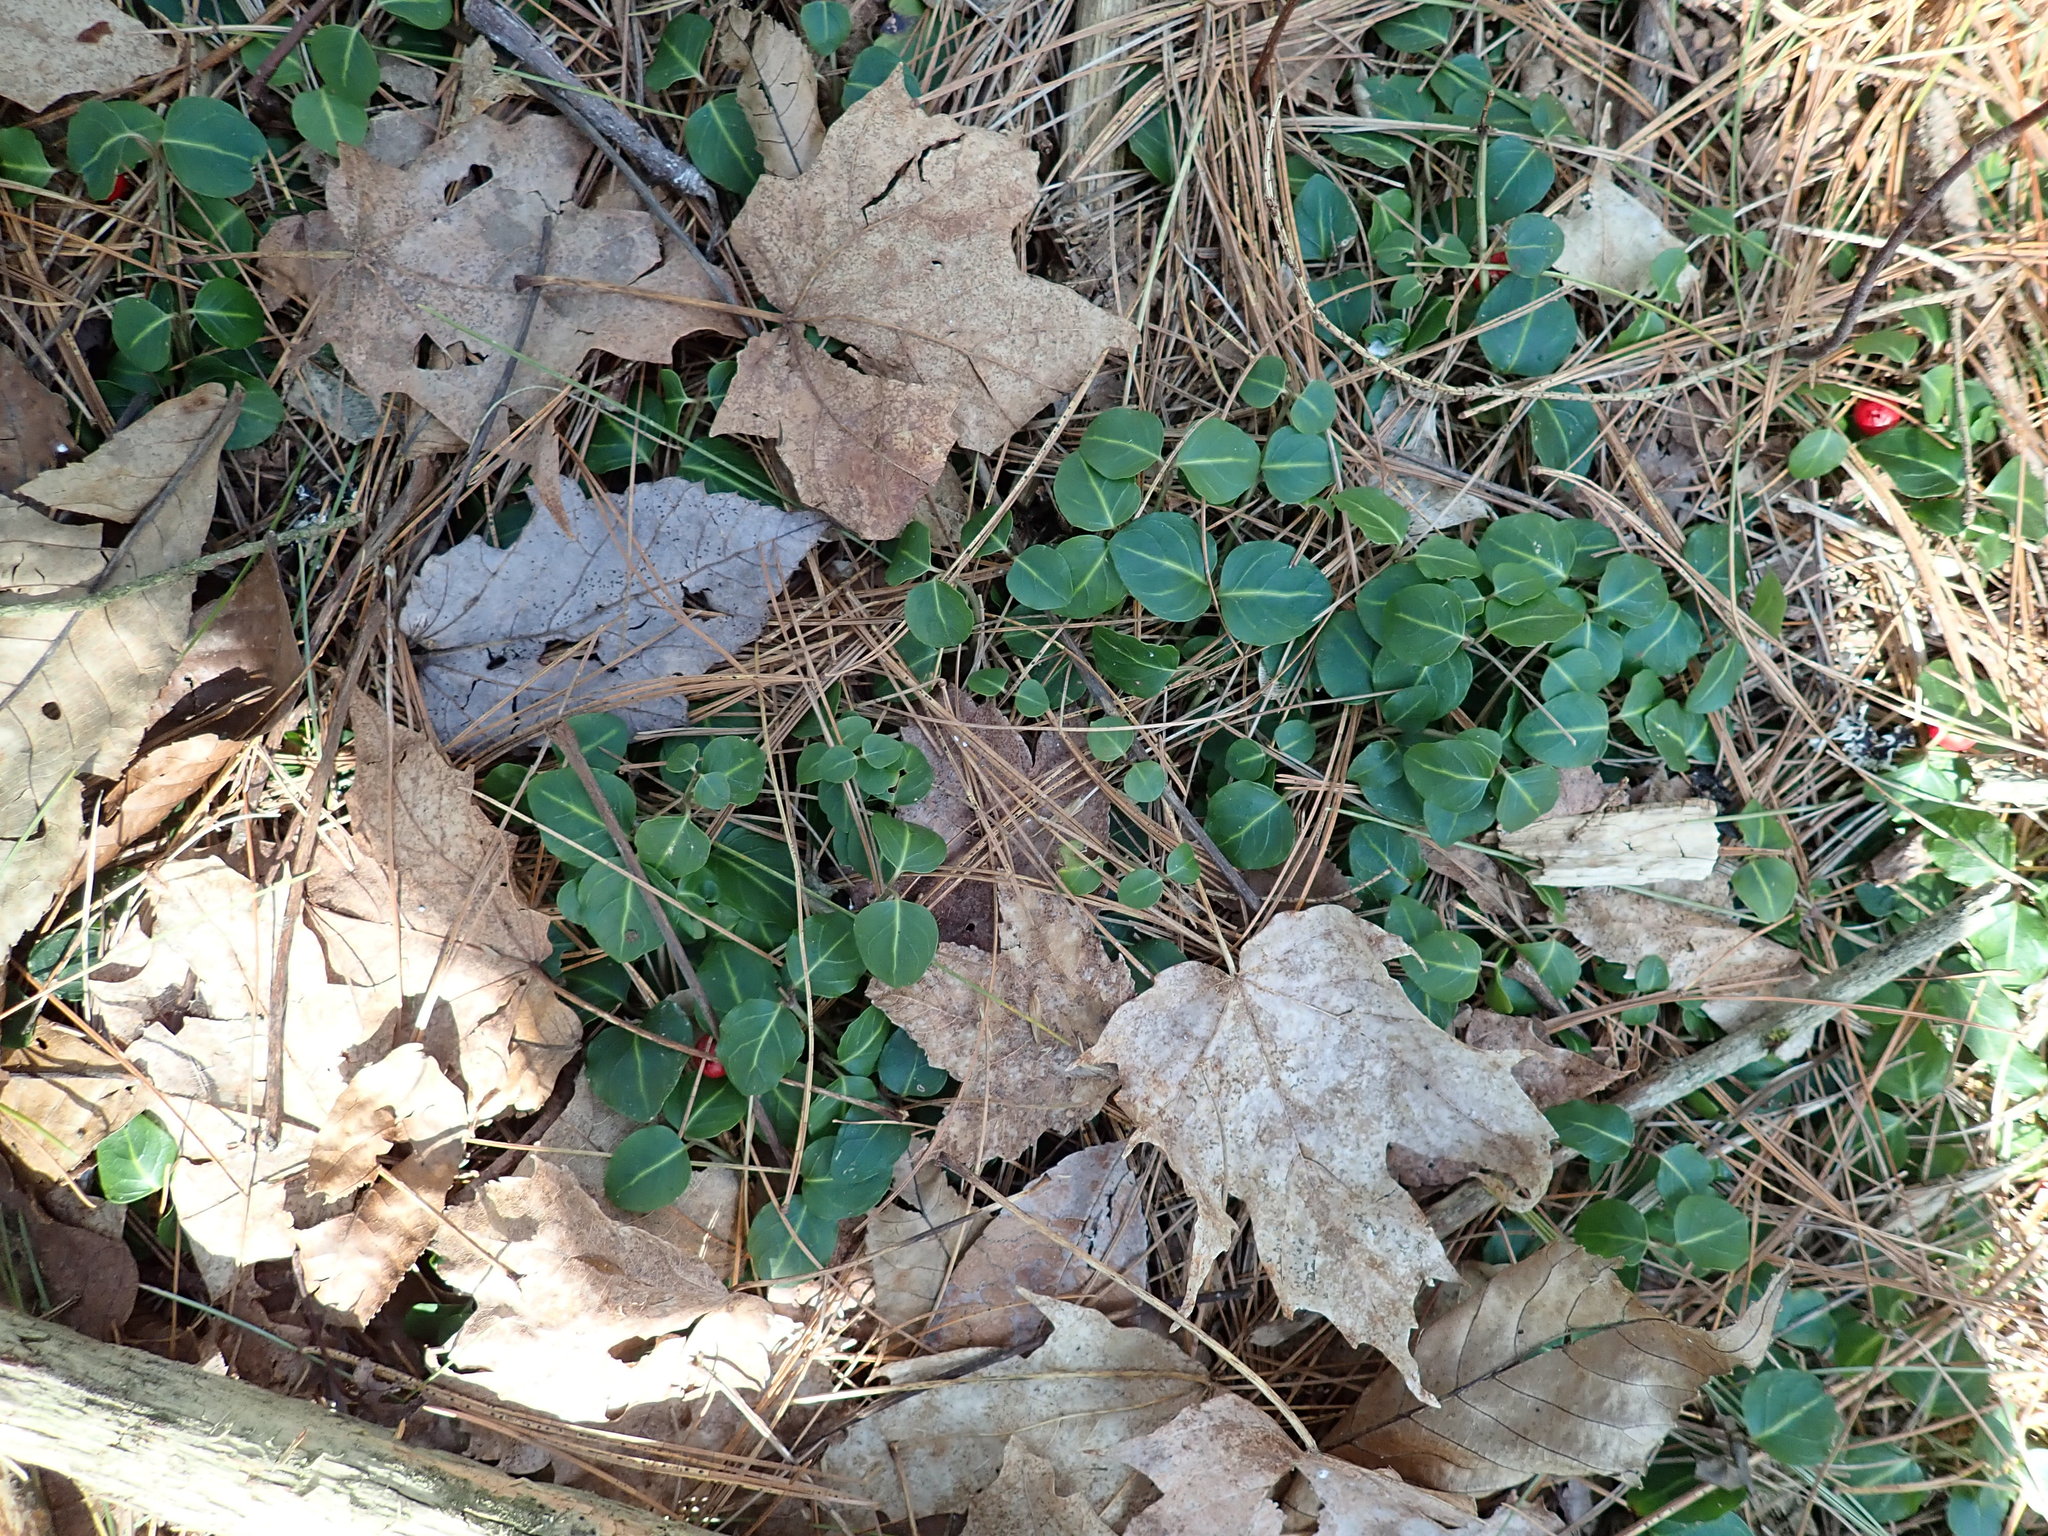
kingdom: Plantae
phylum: Tracheophyta
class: Magnoliopsida
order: Gentianales
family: Rubiaceae
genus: Mitchella
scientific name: Mitchella repens
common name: Partridge-berry
